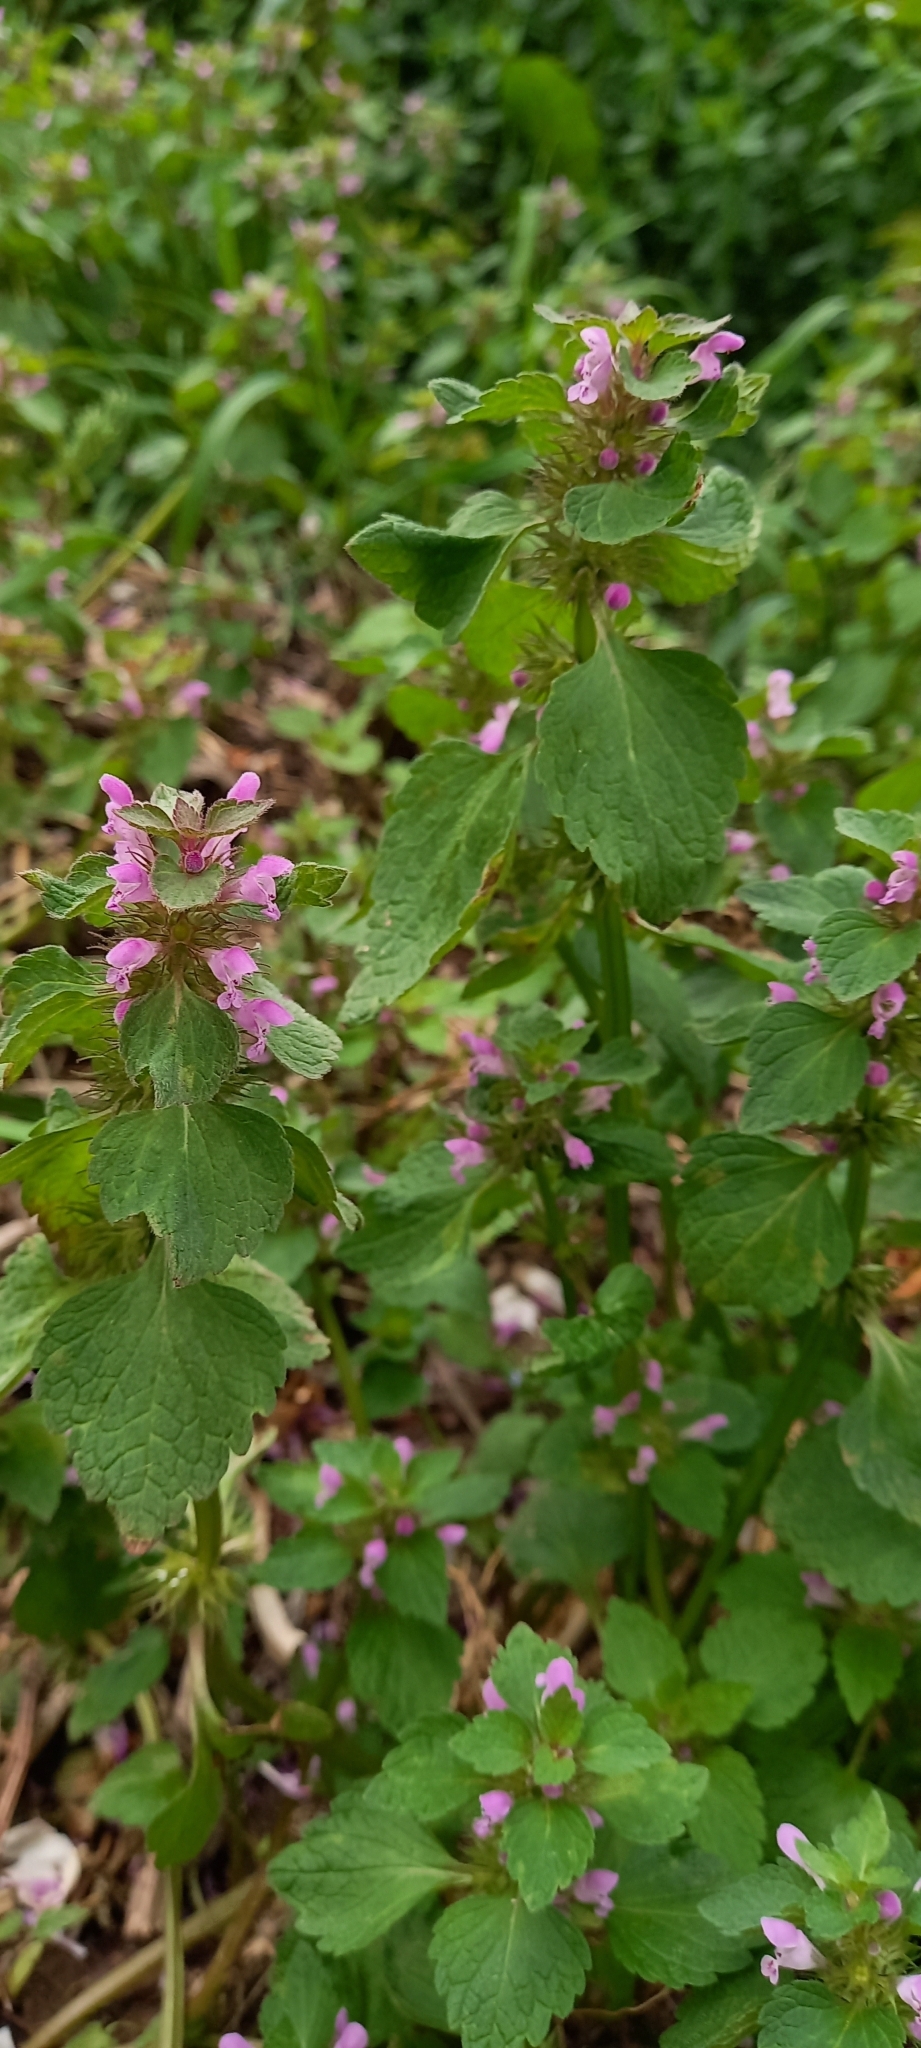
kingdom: Plantae
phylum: Tracheophyta
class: Magnoliopsida
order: Lamiales
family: Lamiaceae
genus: Lamium
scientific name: Lamium purpureum
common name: Red dead-nettle
